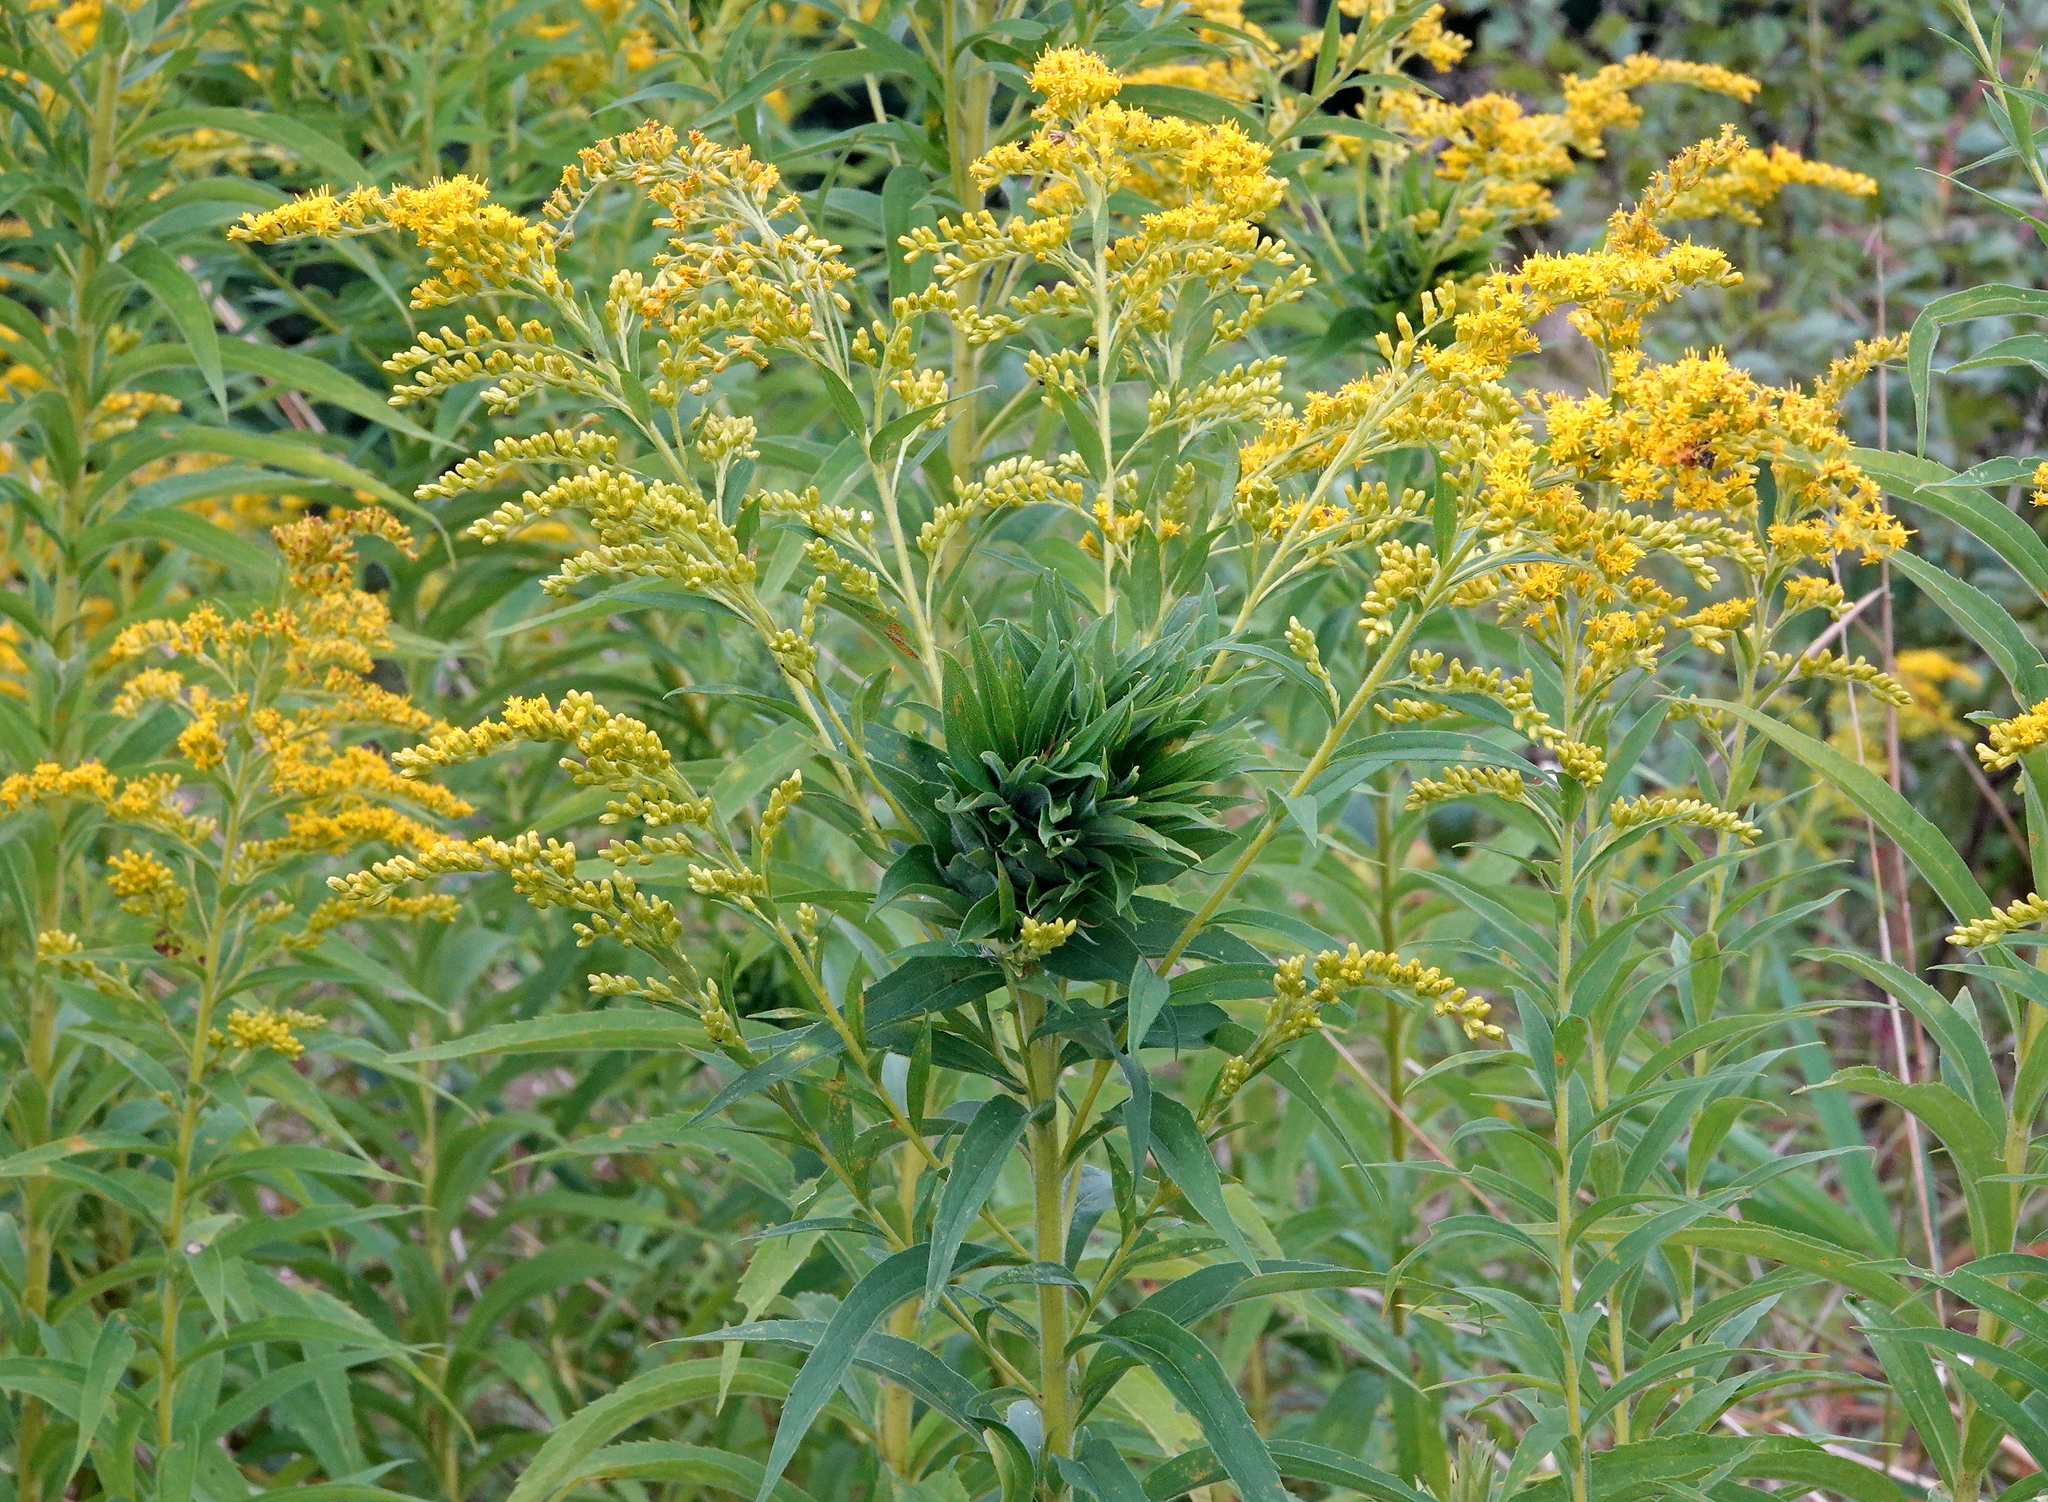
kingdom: Animalia
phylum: Arthropoda
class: Insecta
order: Diptera
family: Cecidomyiidae
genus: Rhopalomyia
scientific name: Rhopalomyia solidaginis
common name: Goldenrod bunch gall midge
